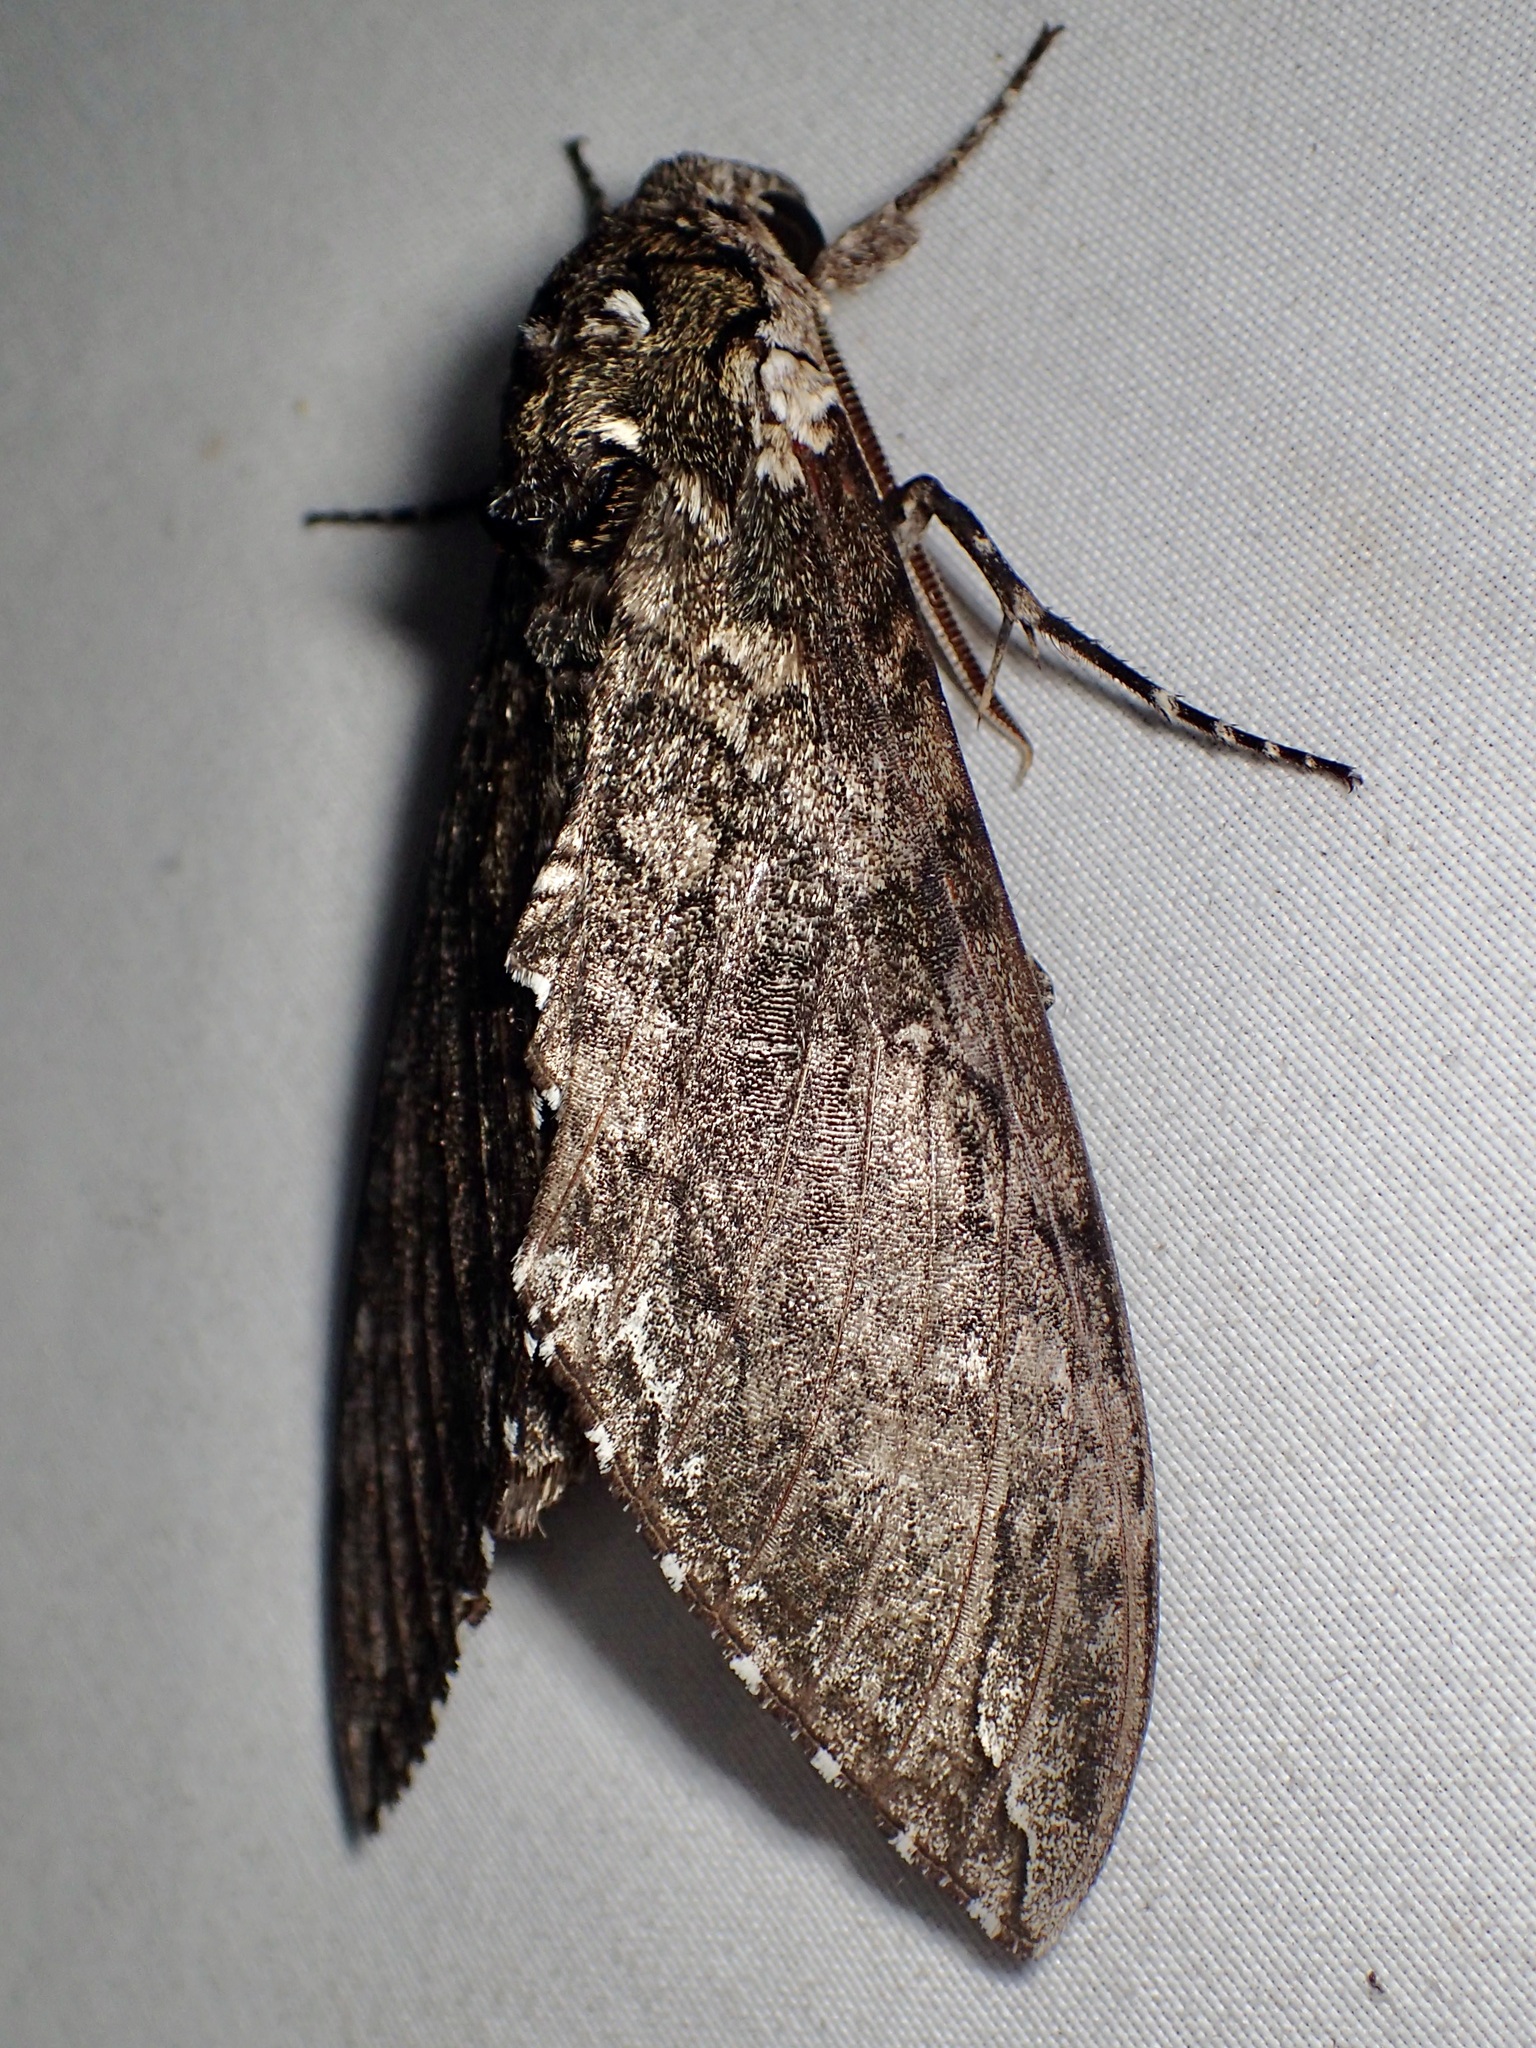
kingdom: Animalia
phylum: Arthropoda
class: Insecta
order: Lepidoptera
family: Sphingidae
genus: Manduca
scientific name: Manduca sexta
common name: Carolina sphinx
